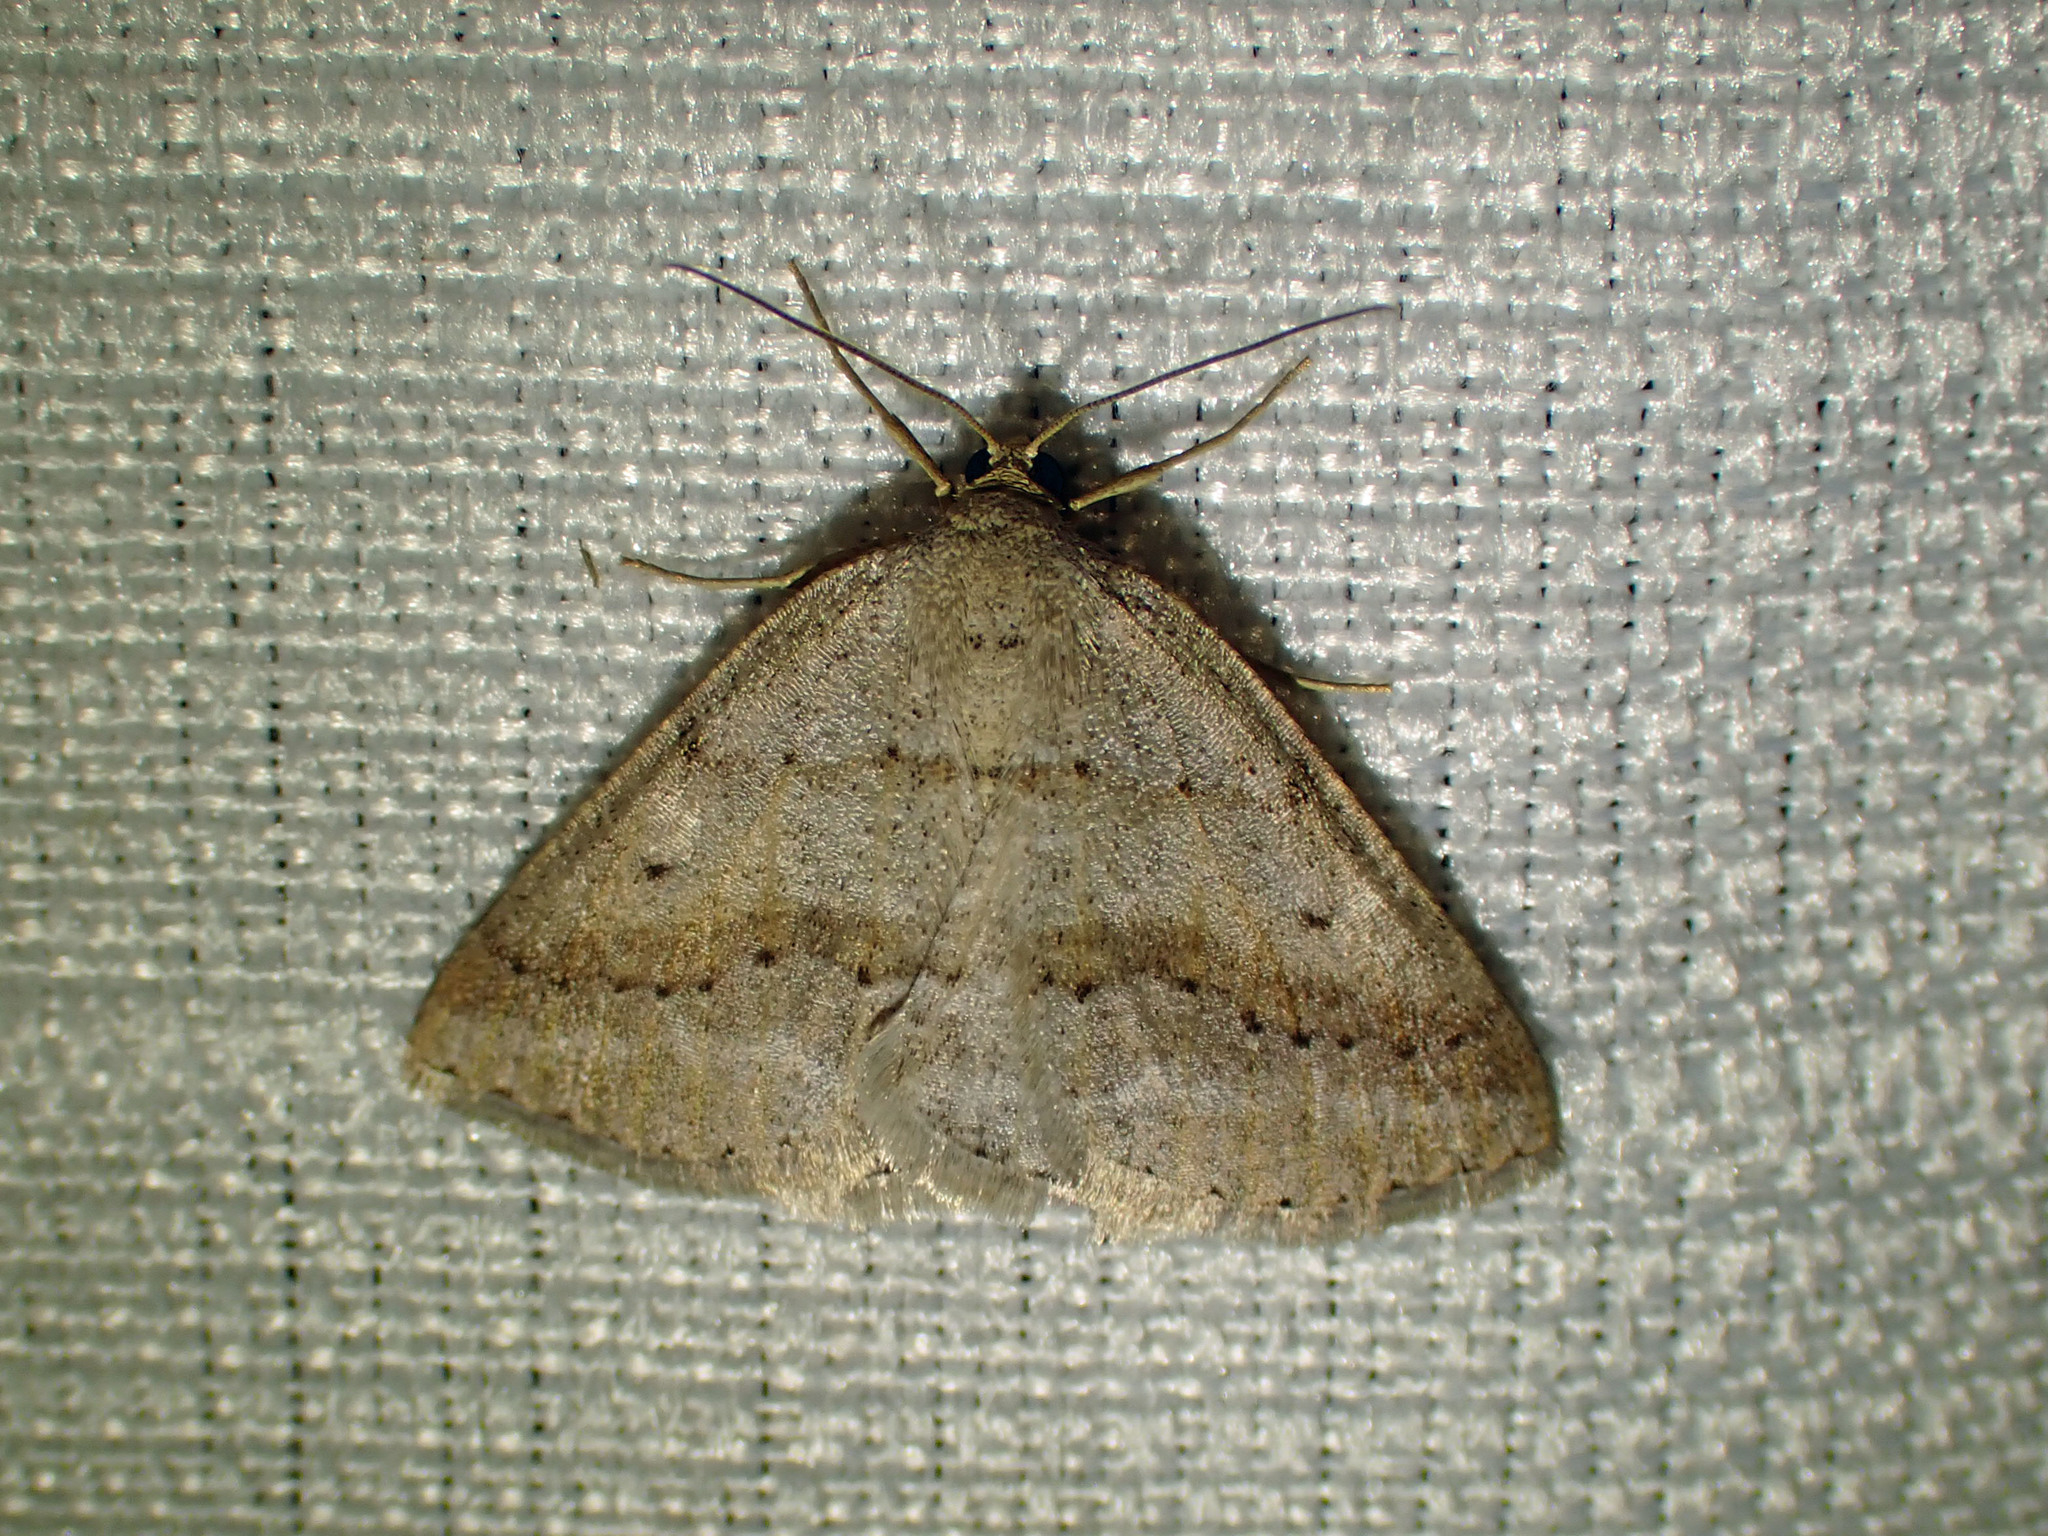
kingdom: Animalia
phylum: Arthropoda
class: Insecta
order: Lepidoptera
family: Geometridae
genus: Tacparia
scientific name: Tacparia detersata
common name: Pale alder moth
